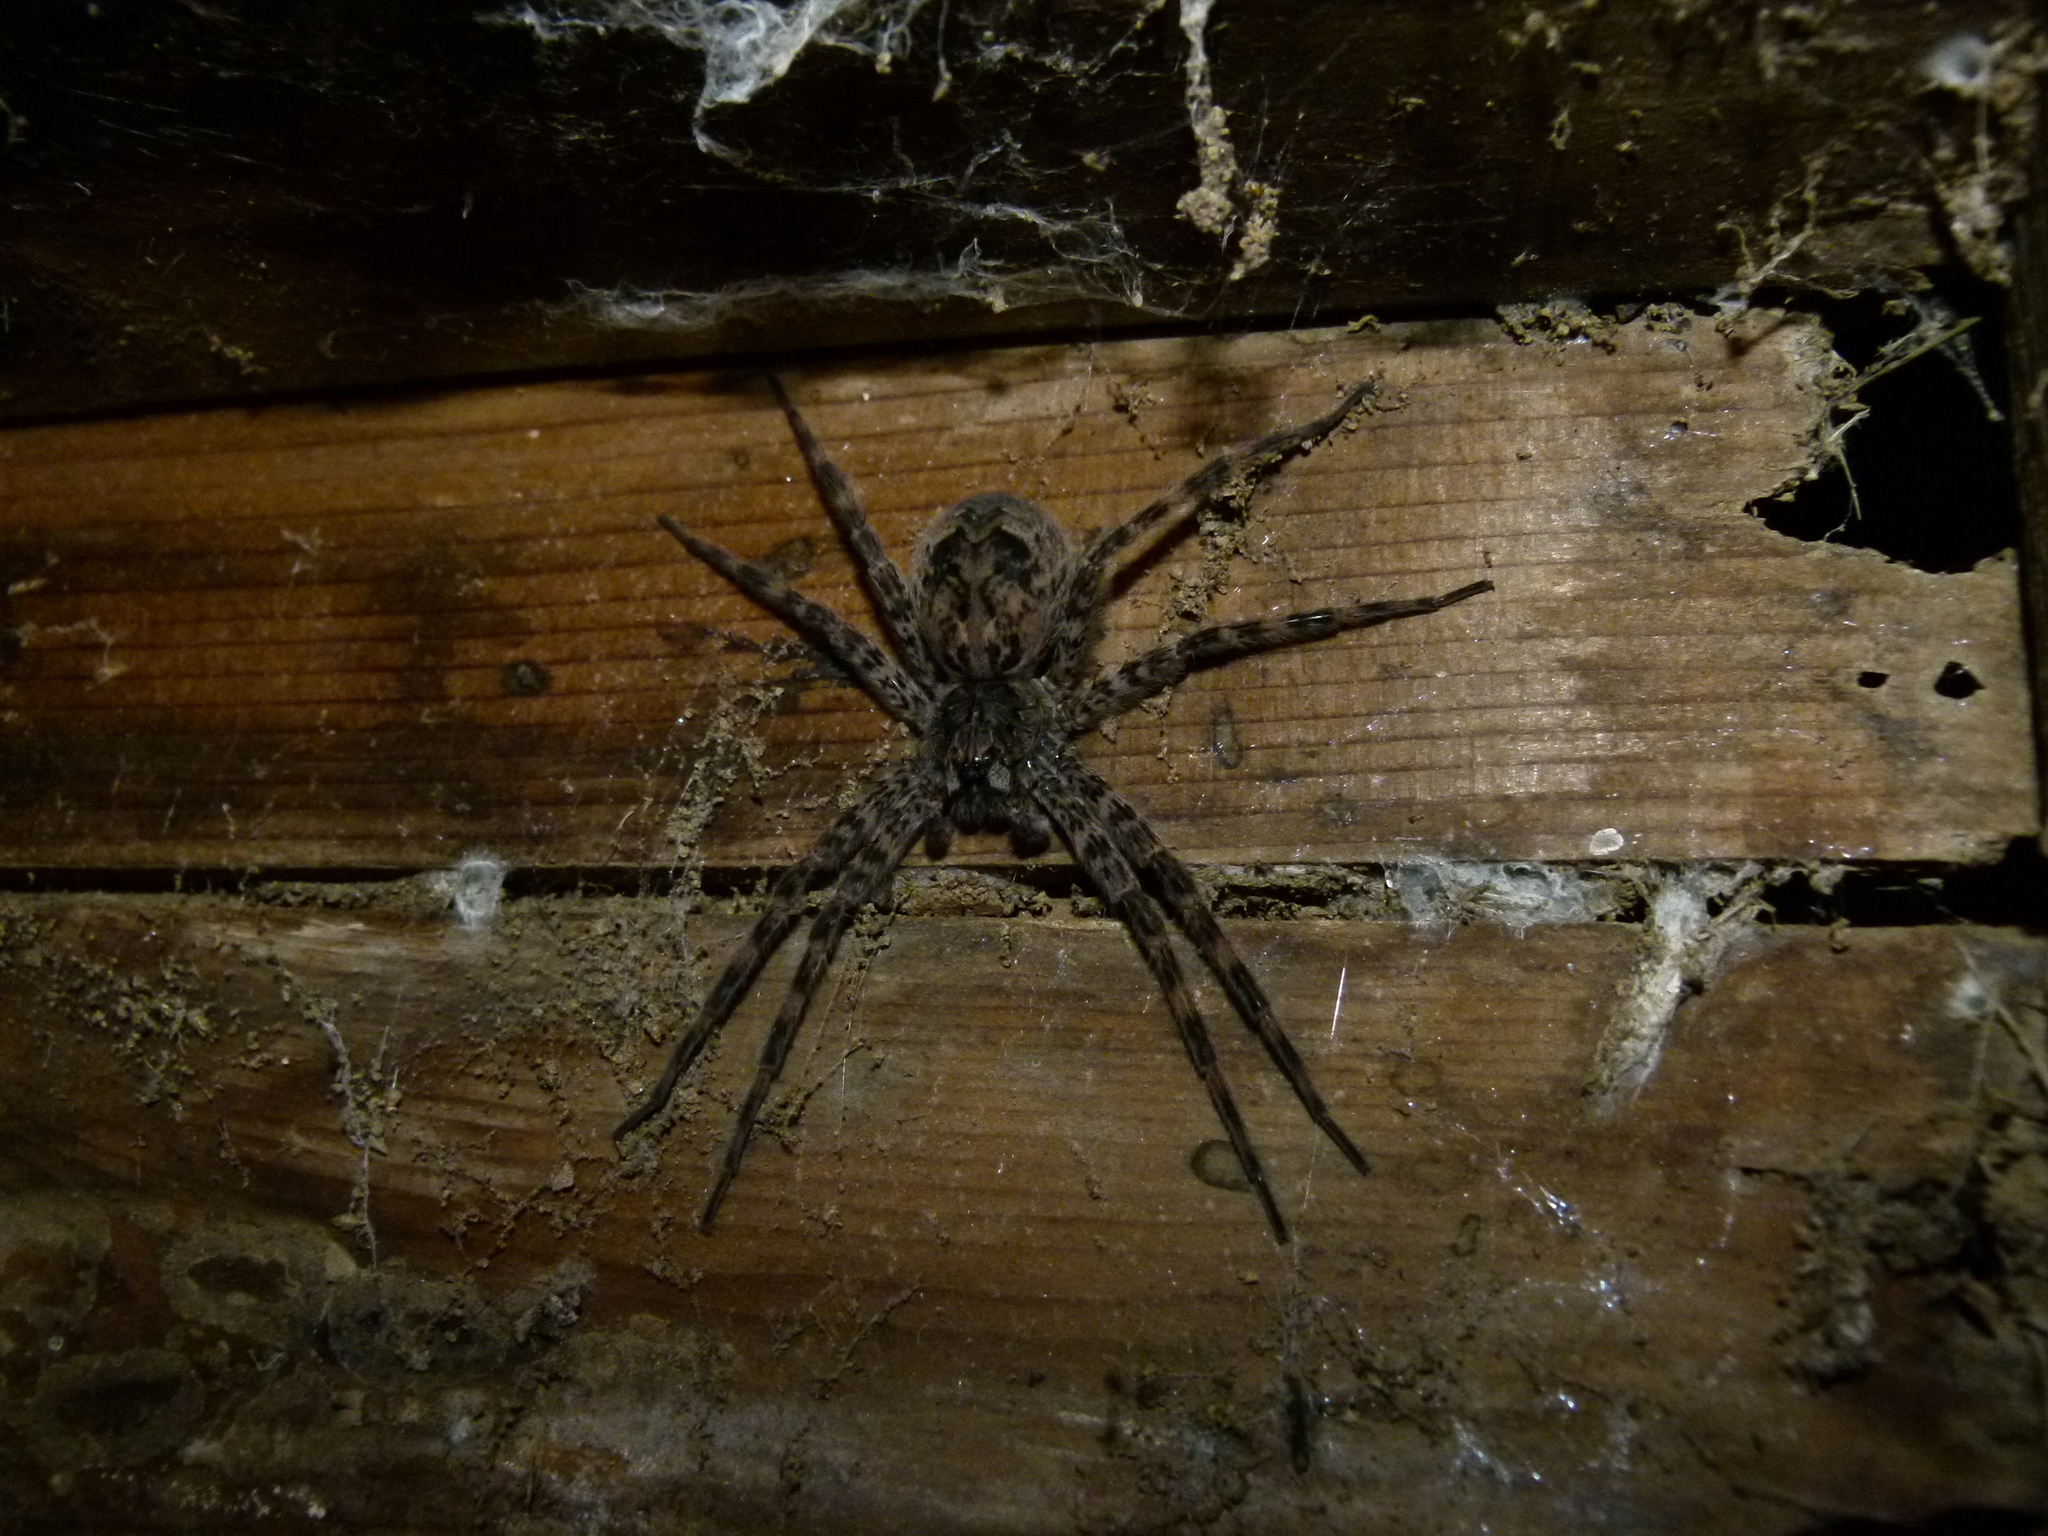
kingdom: Animalia
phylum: Arthropoda
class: Arachnida
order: Araneae
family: Pisauridae
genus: Dolomedes
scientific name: Dolomedes tenebrosus
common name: Dark fishing spider
